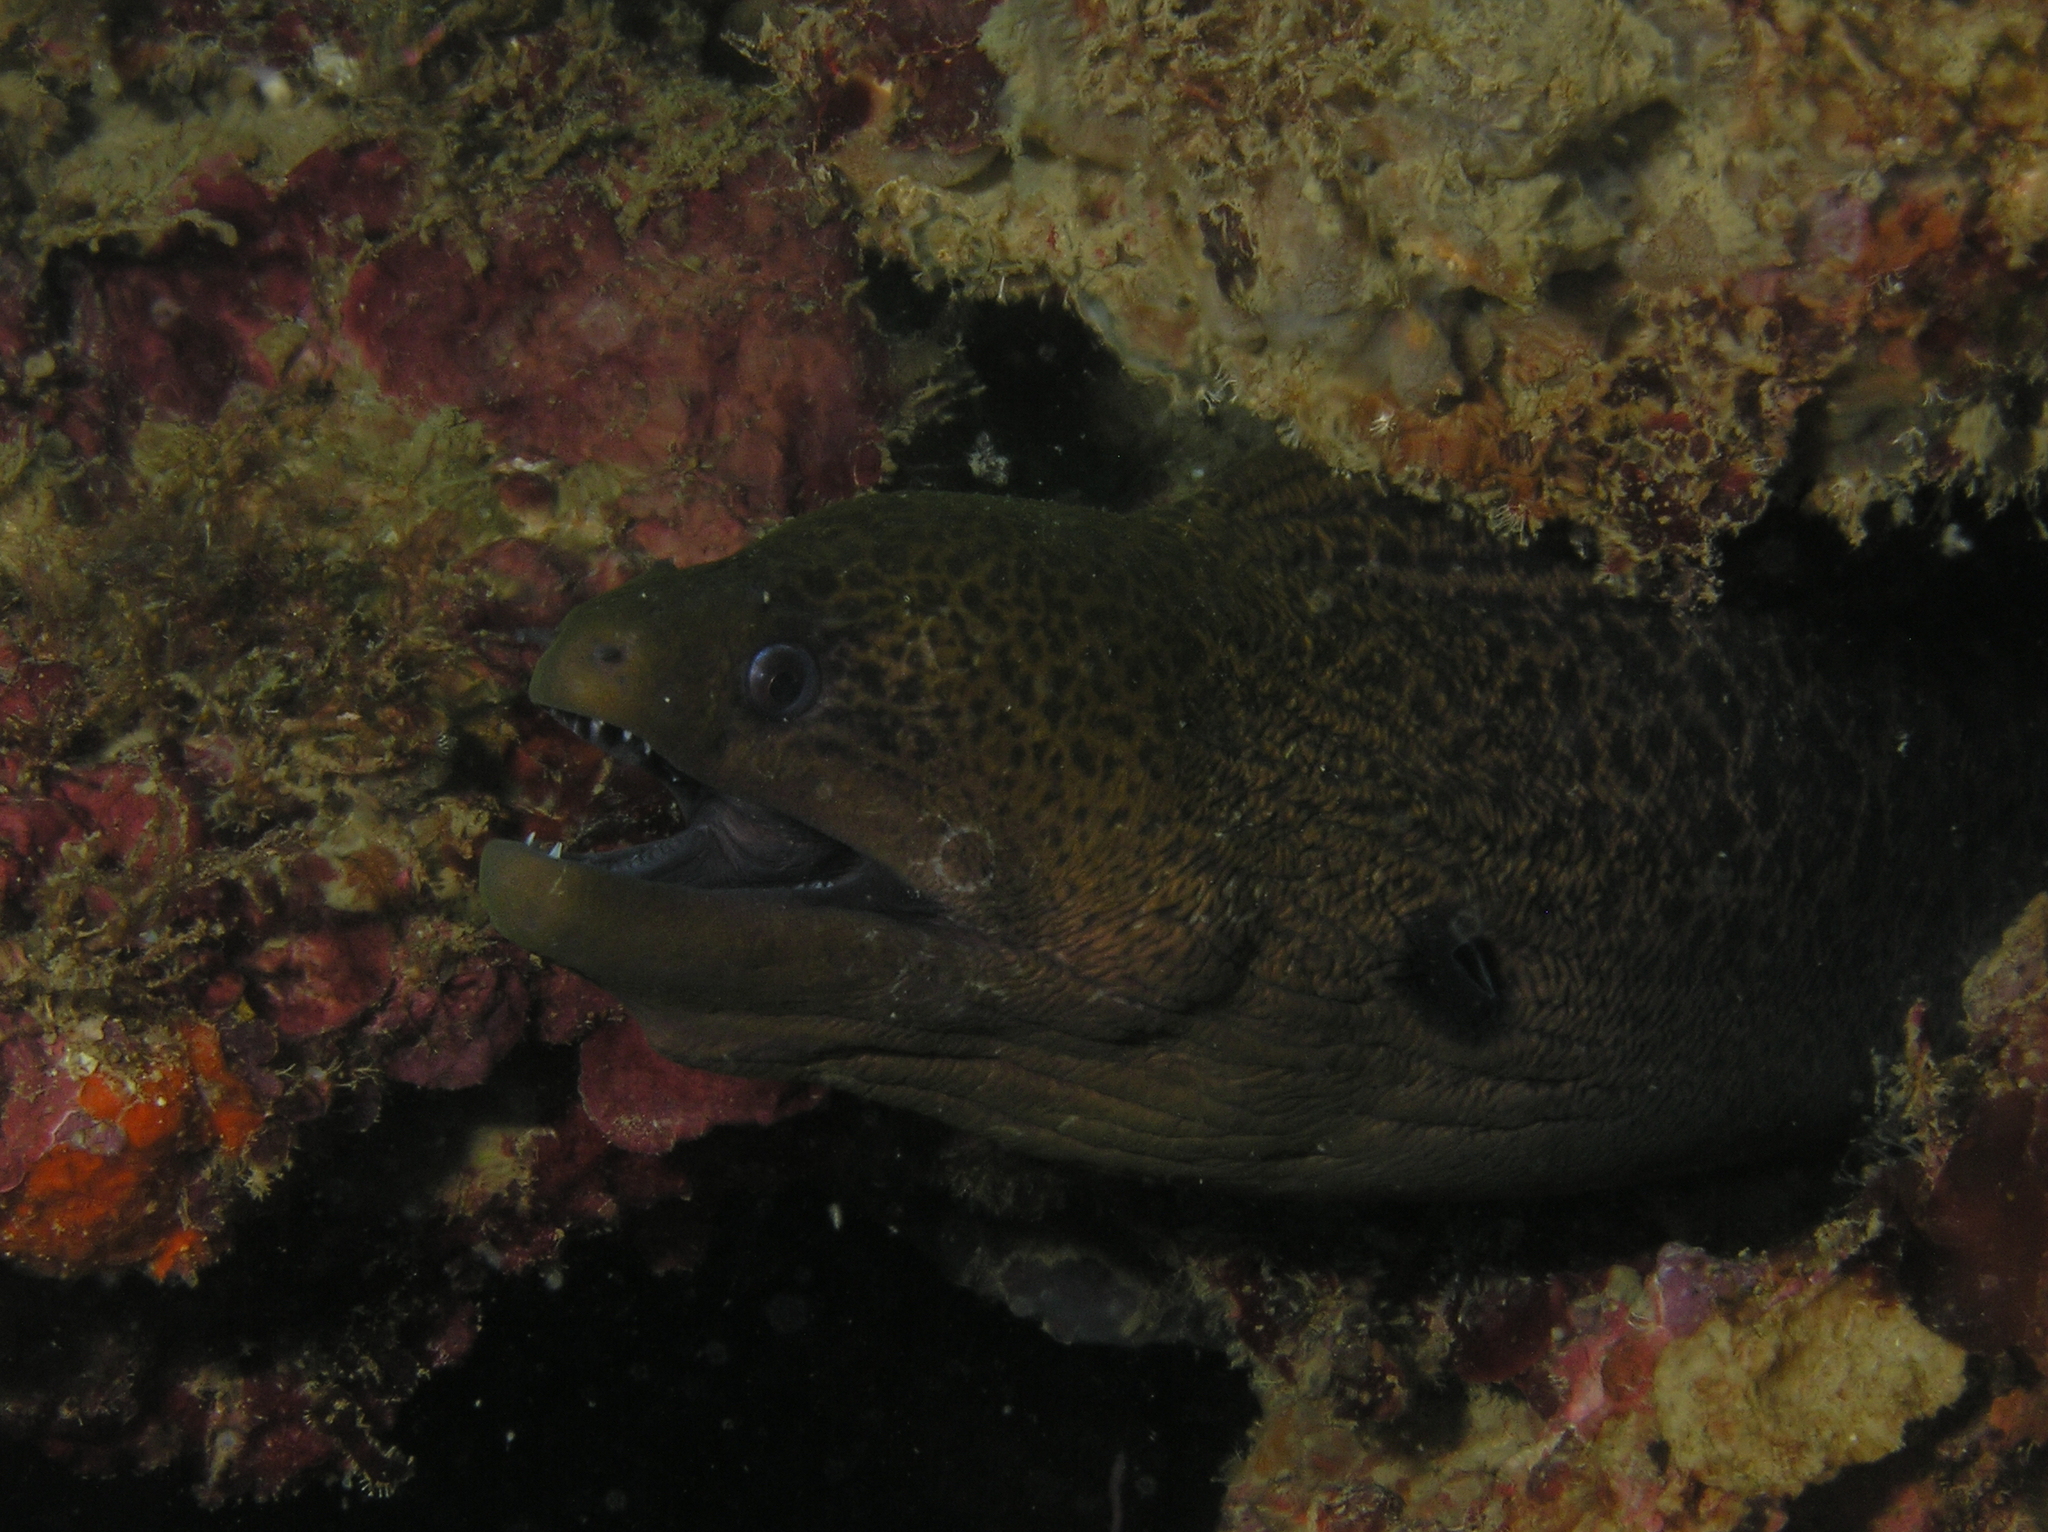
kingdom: Animalia
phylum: Chordata
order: Anguilliformes
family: Muraenidae
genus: Gymnothorax
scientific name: Gymnothorax javanicus
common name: Giant moray
